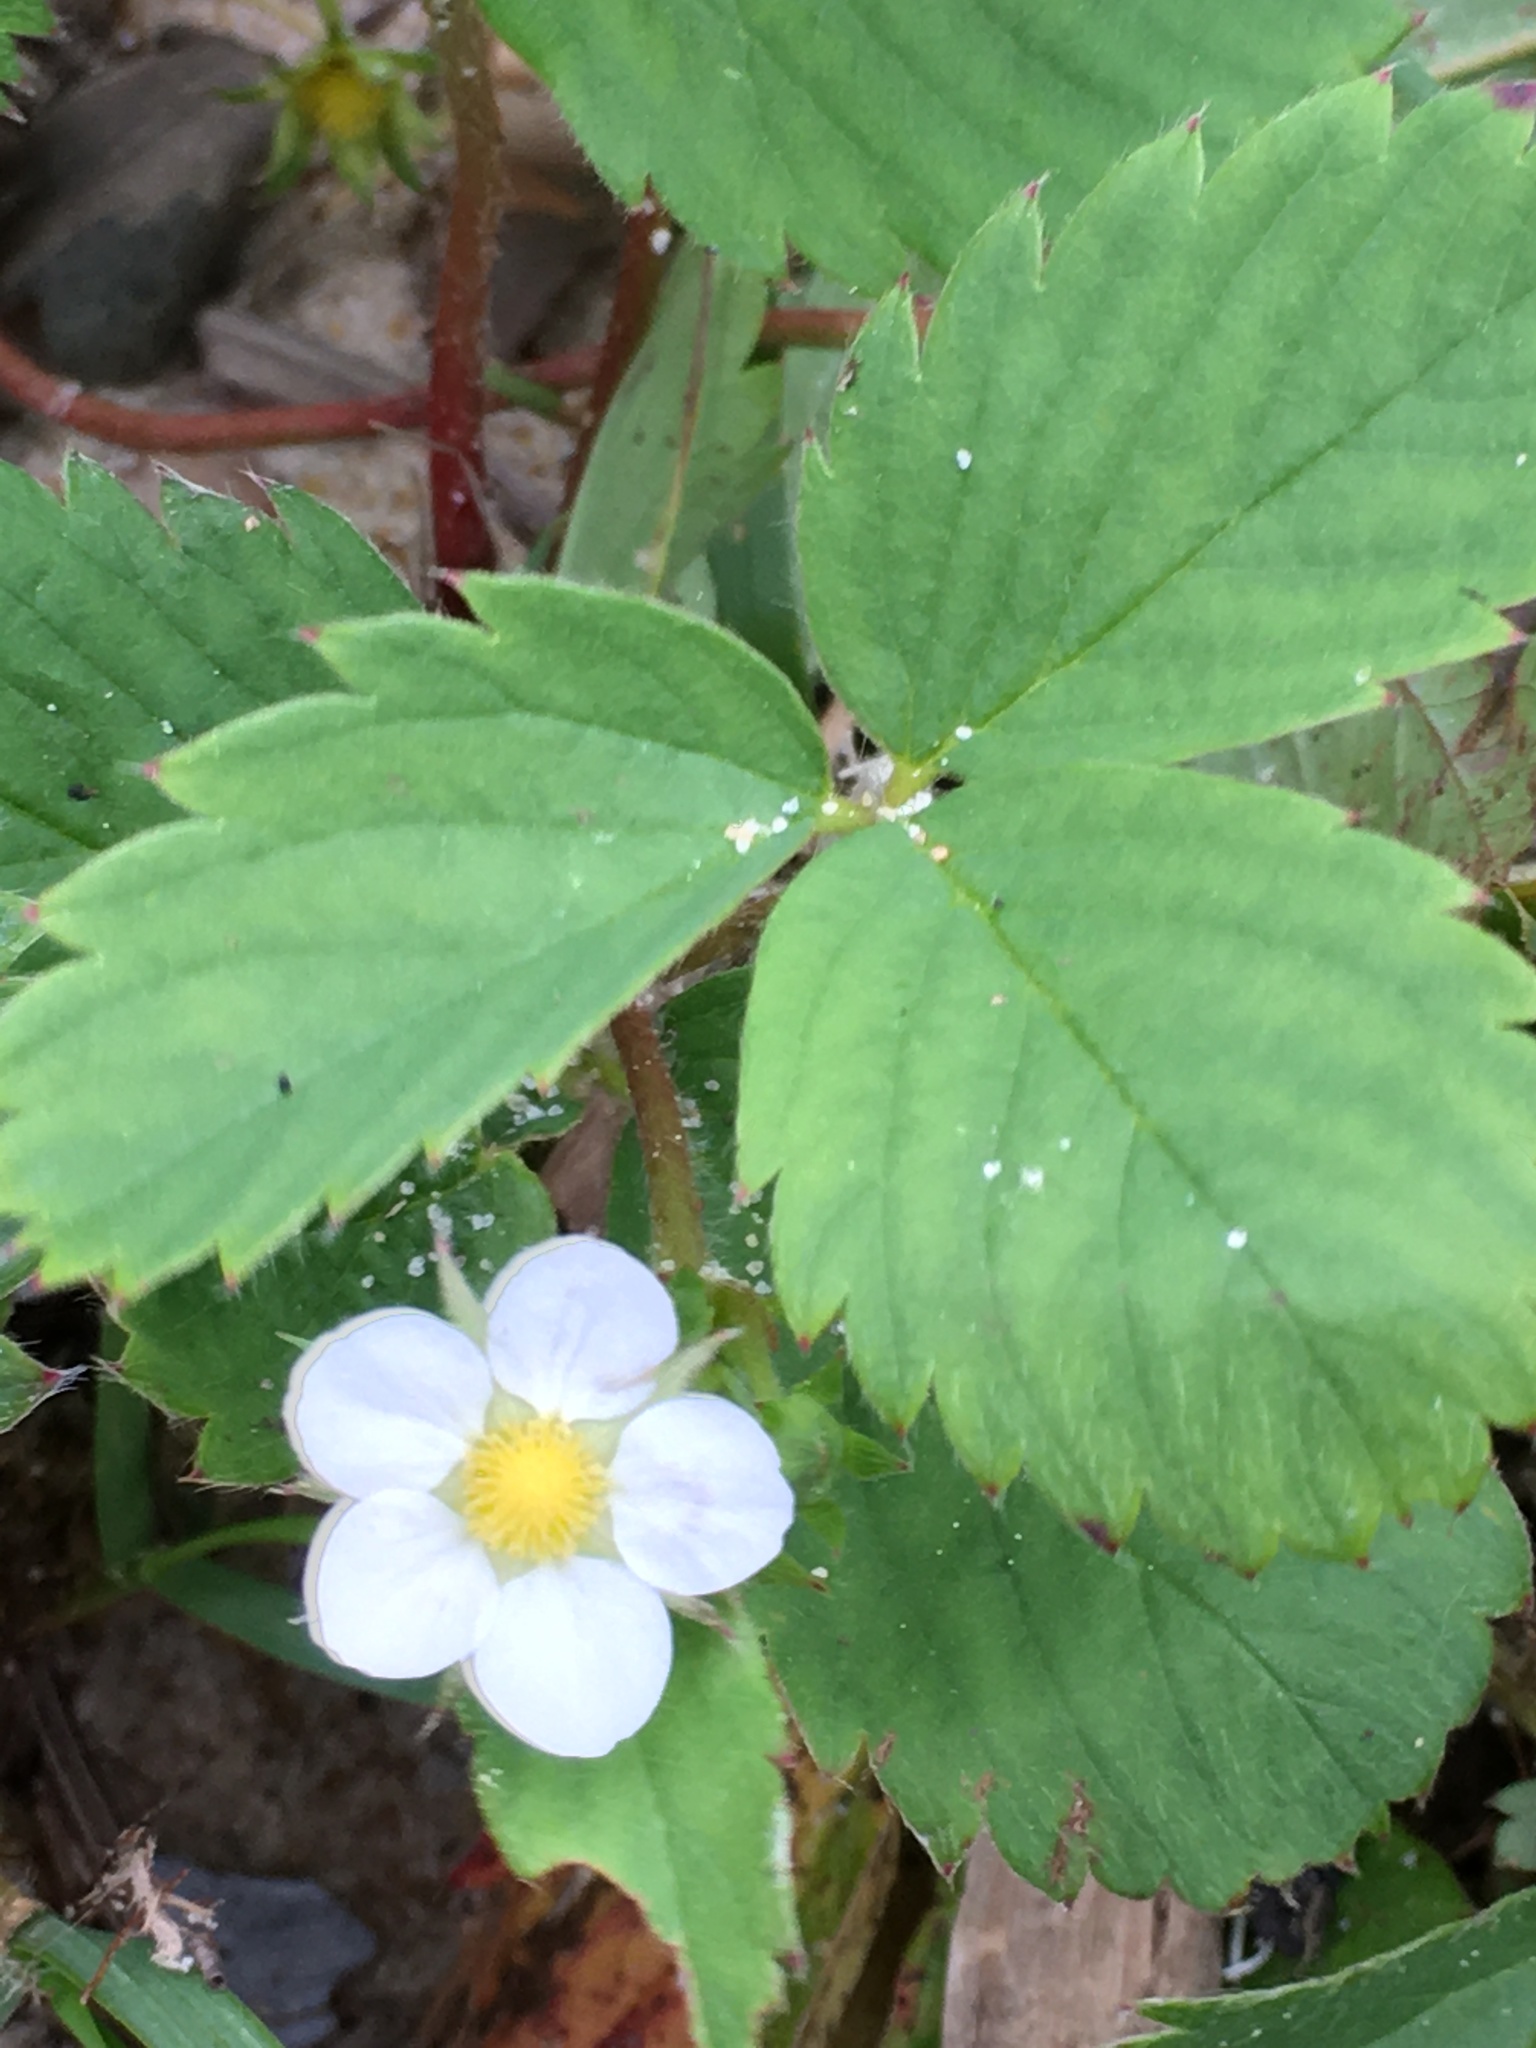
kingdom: Plantae
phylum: Tracheophyta
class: Magnoliopsida
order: Rosales
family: Rosaceae
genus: Fragaria
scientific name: Fragaria virginiana
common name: Thickleaved wild strawberry
